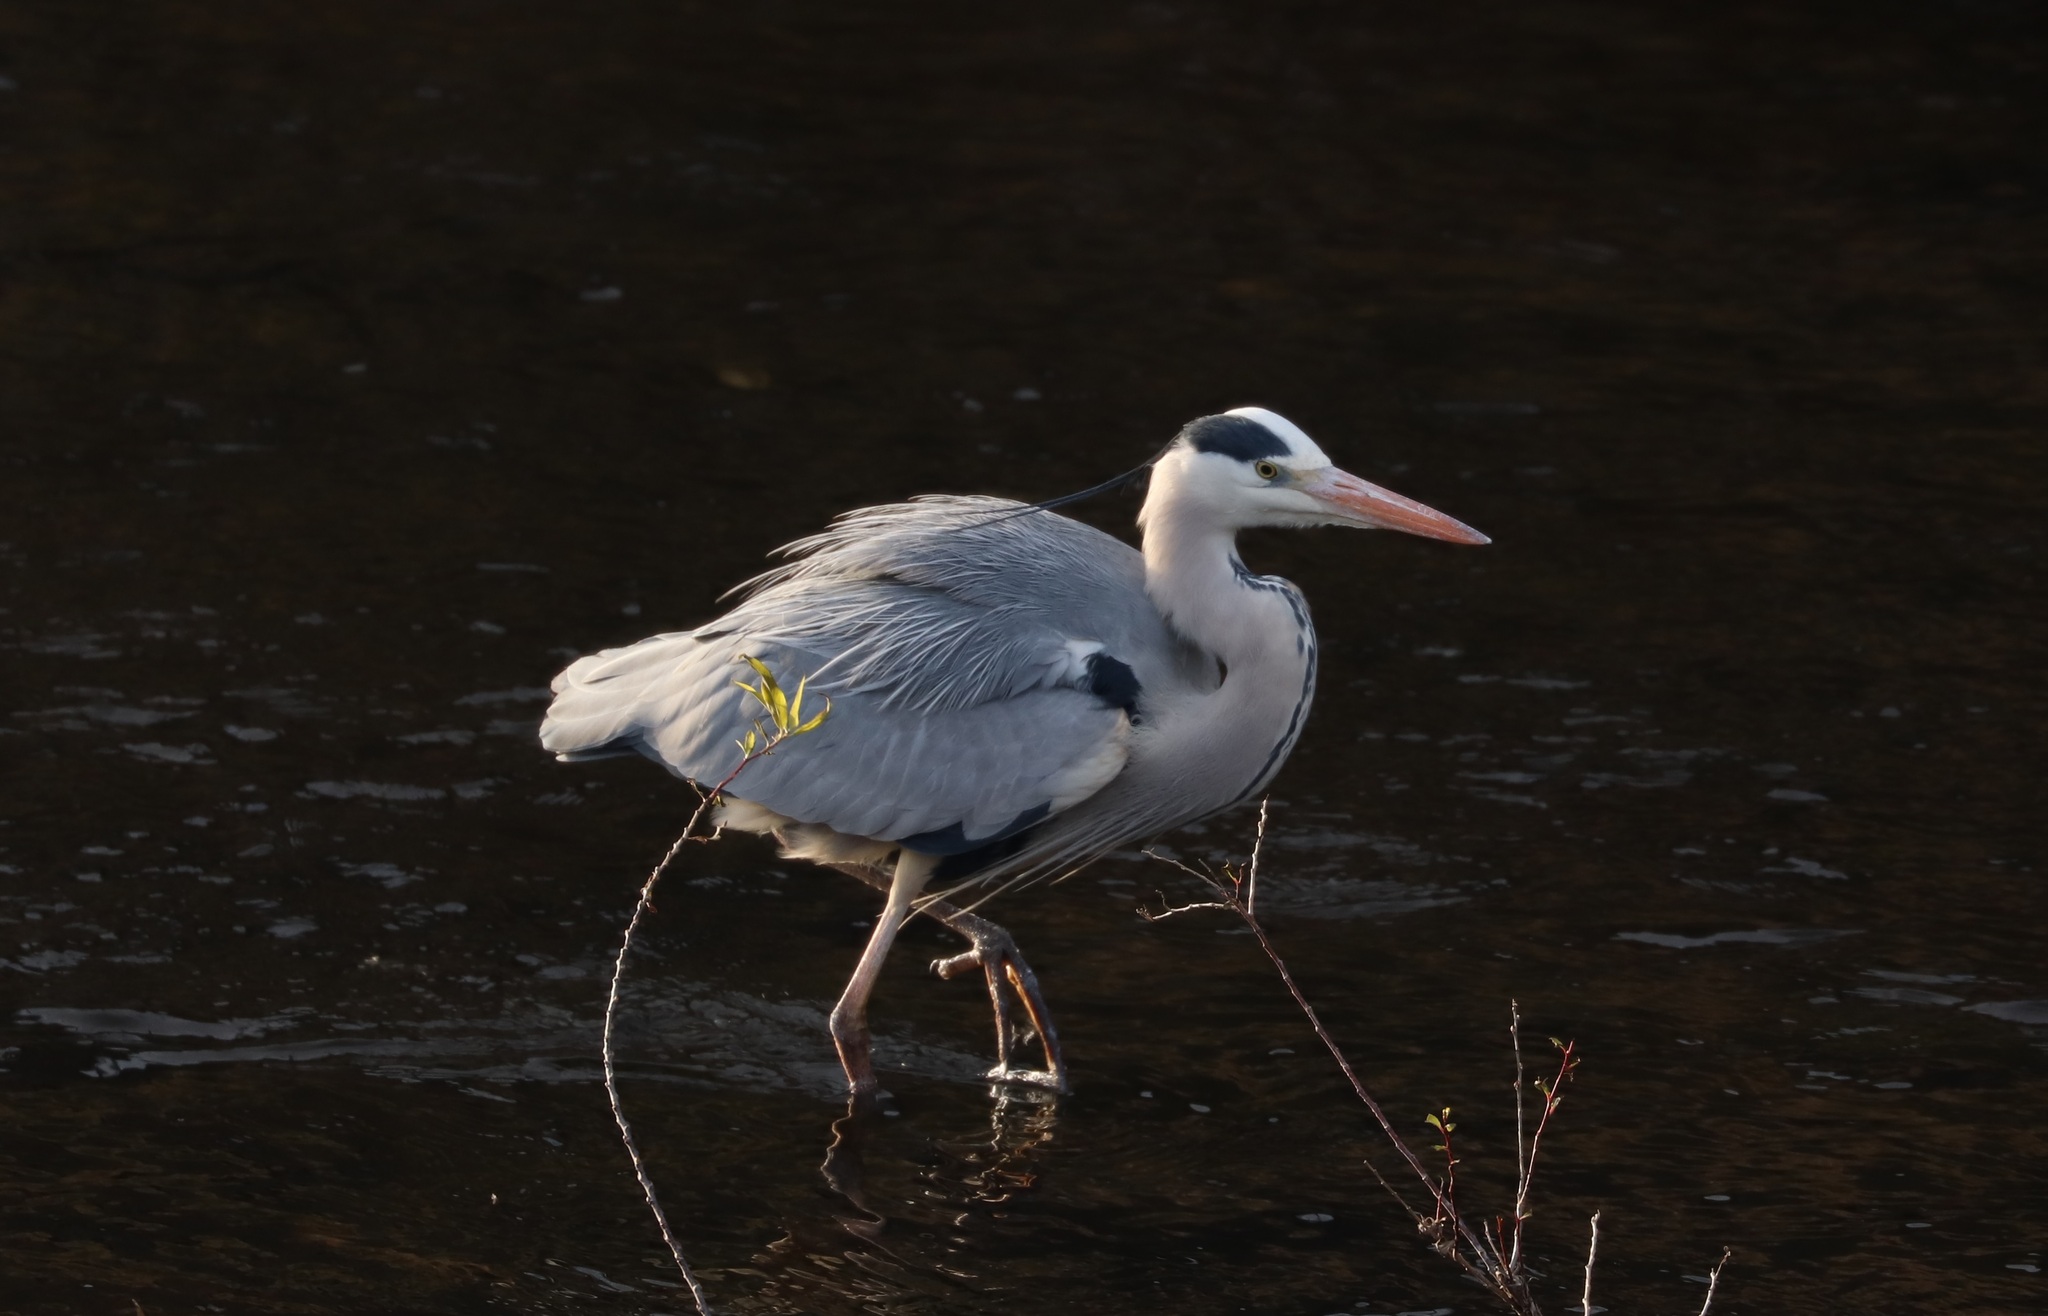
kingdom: Animalia
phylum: Chordata
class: Aves
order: Pelecaniformes
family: Ardeidae
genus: Ardea
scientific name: Ardea cinerea
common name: Grey heron
